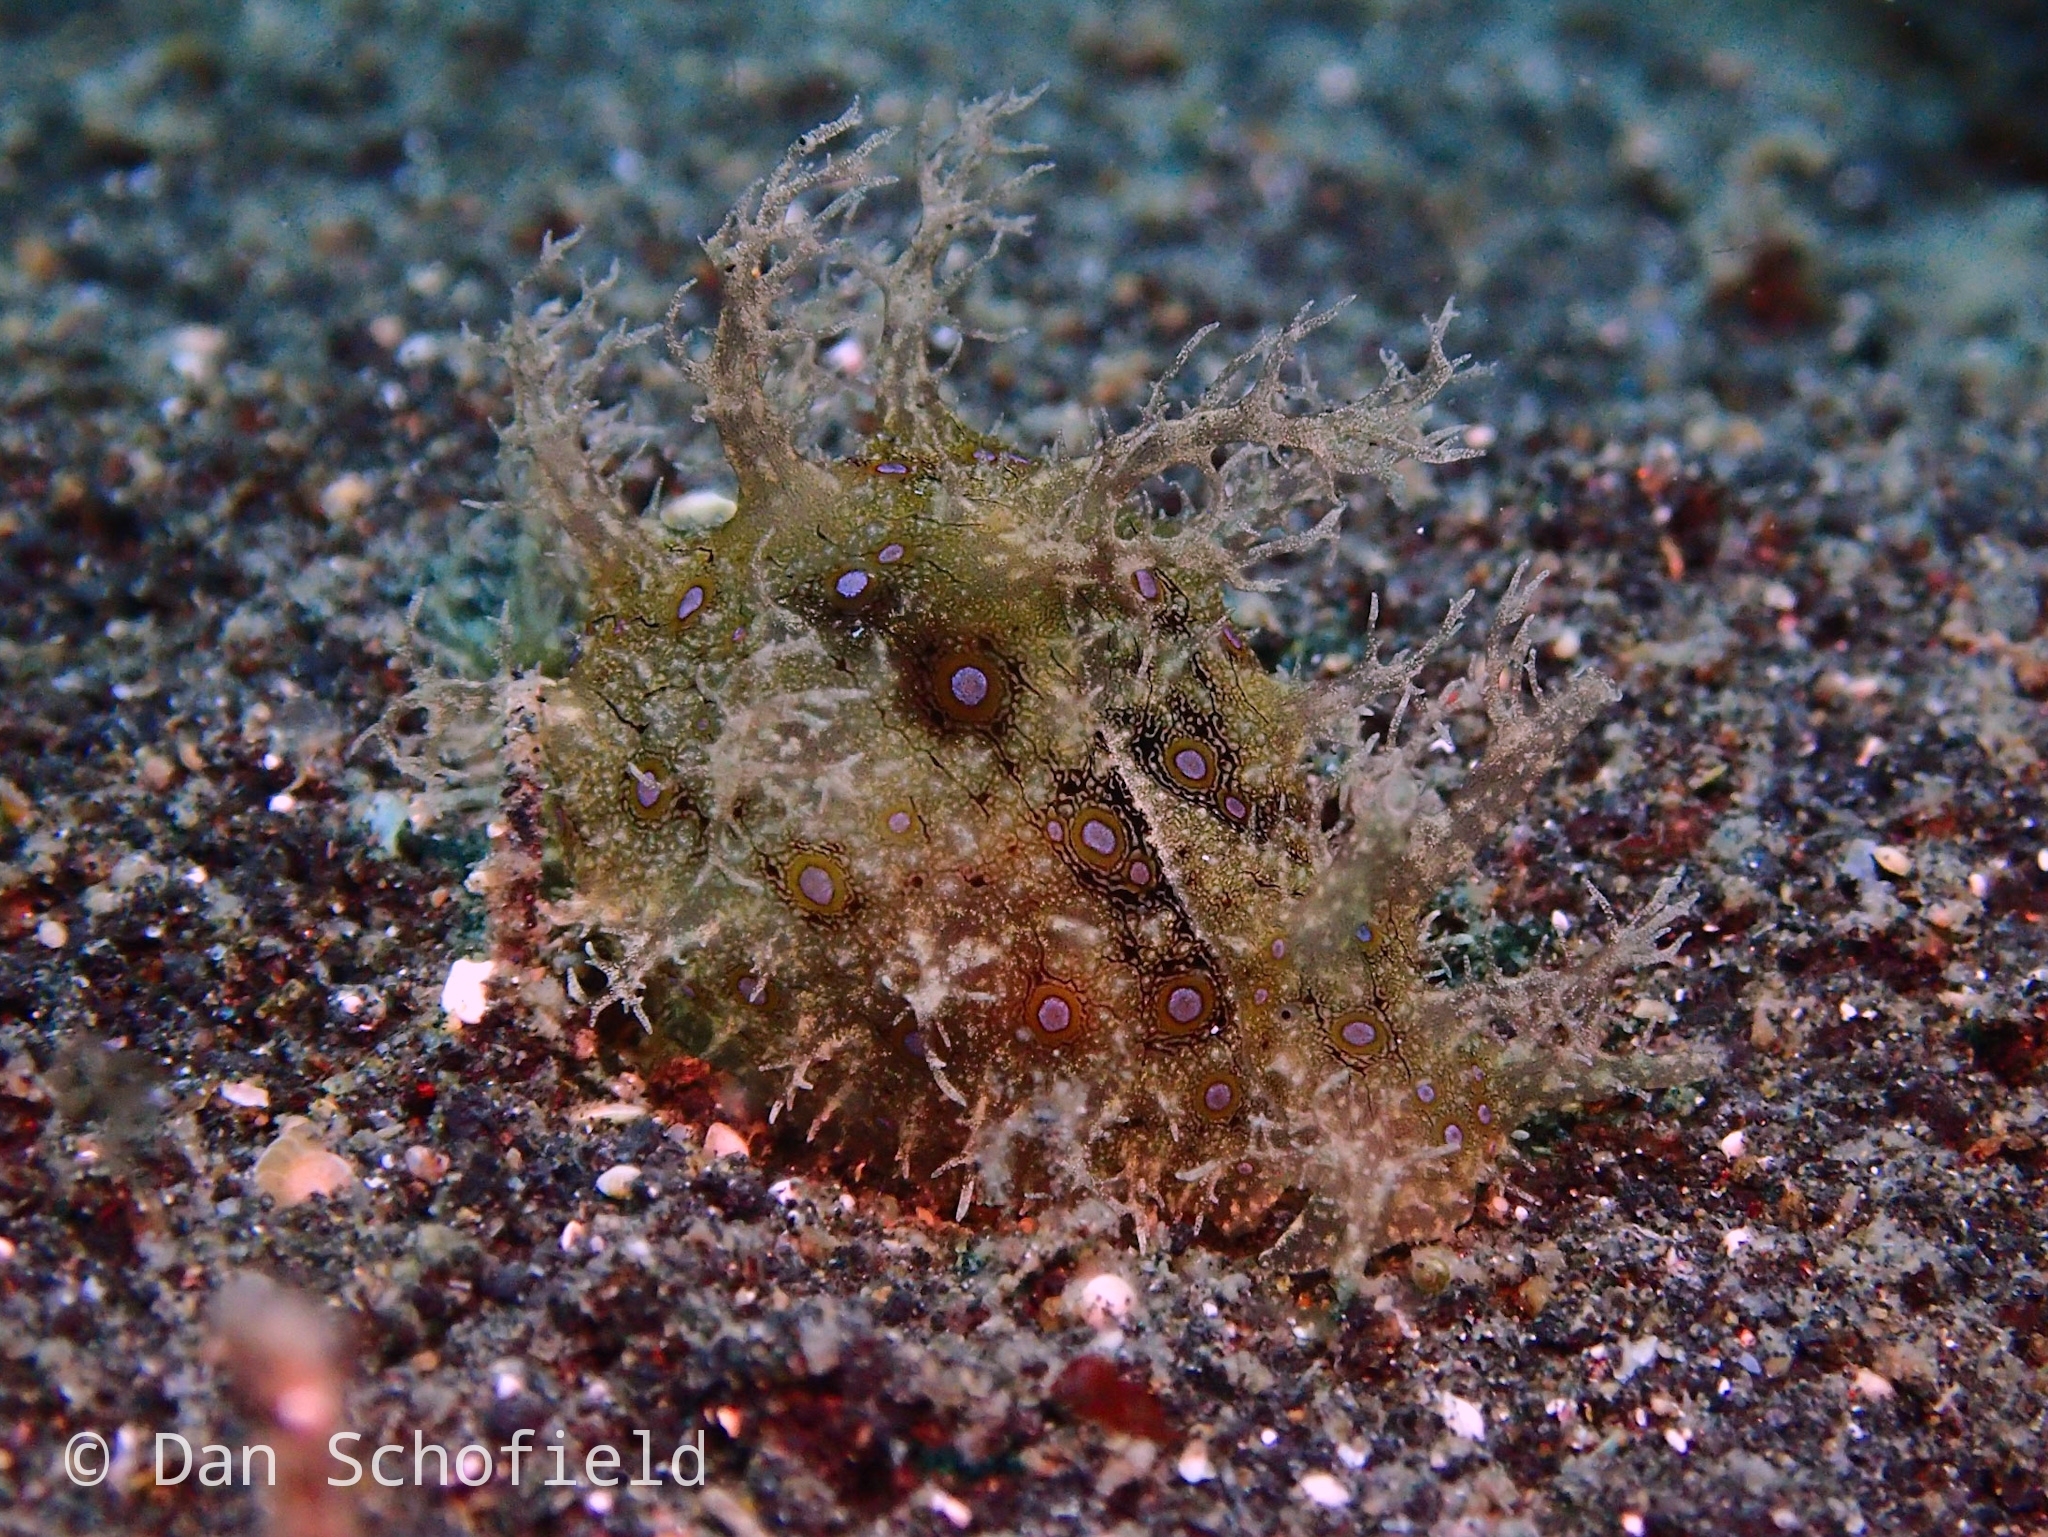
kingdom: Animalia
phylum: Mollusca
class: Gastropoda
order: Aplysiida
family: Aplysiidae
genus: Bursatella
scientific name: Bursatella ocelligera
